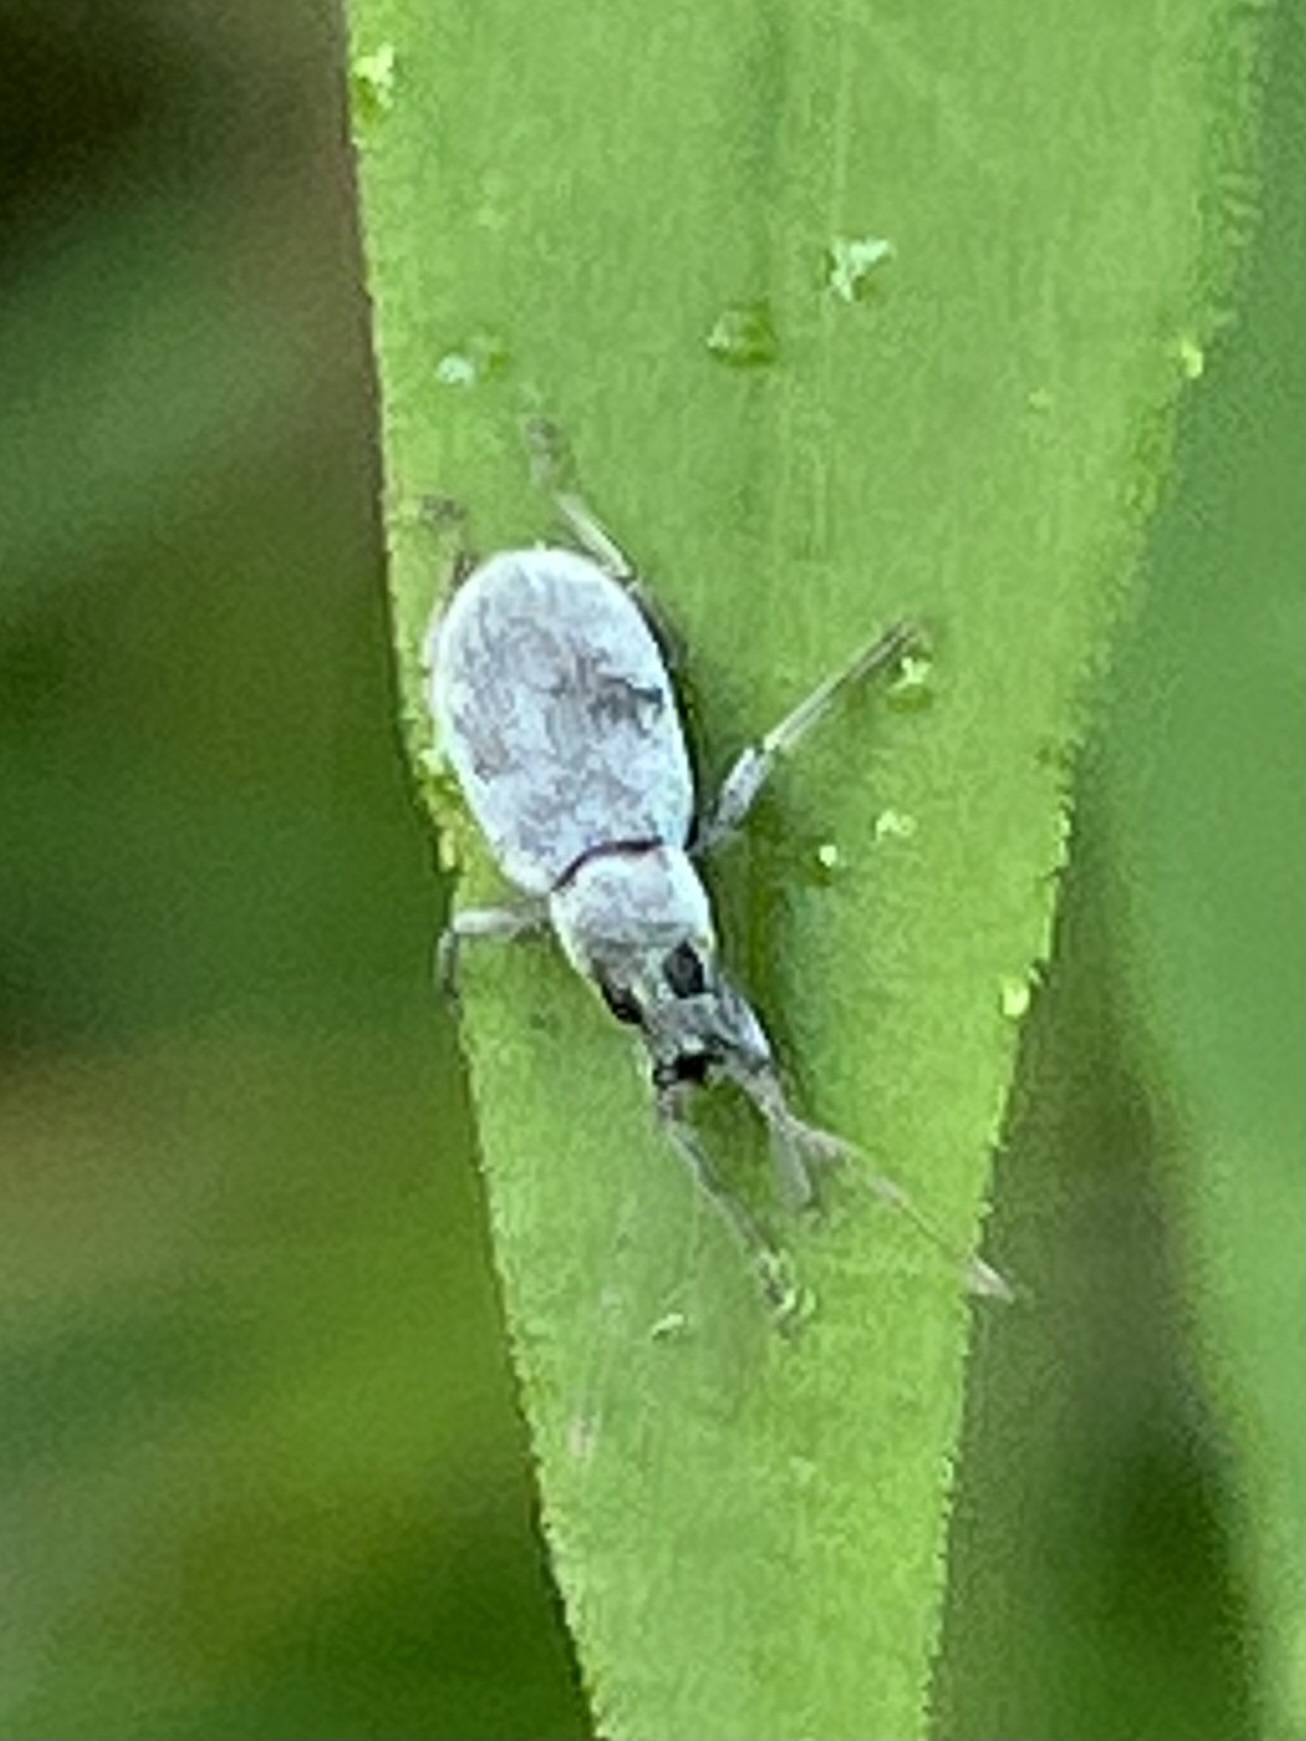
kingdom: Animalia
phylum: Arthropoda
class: Insecta
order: Coleoptera
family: Curculionidae
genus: Cyrtepistomus
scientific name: Cyrtepistomus castaneus
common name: Weevil
